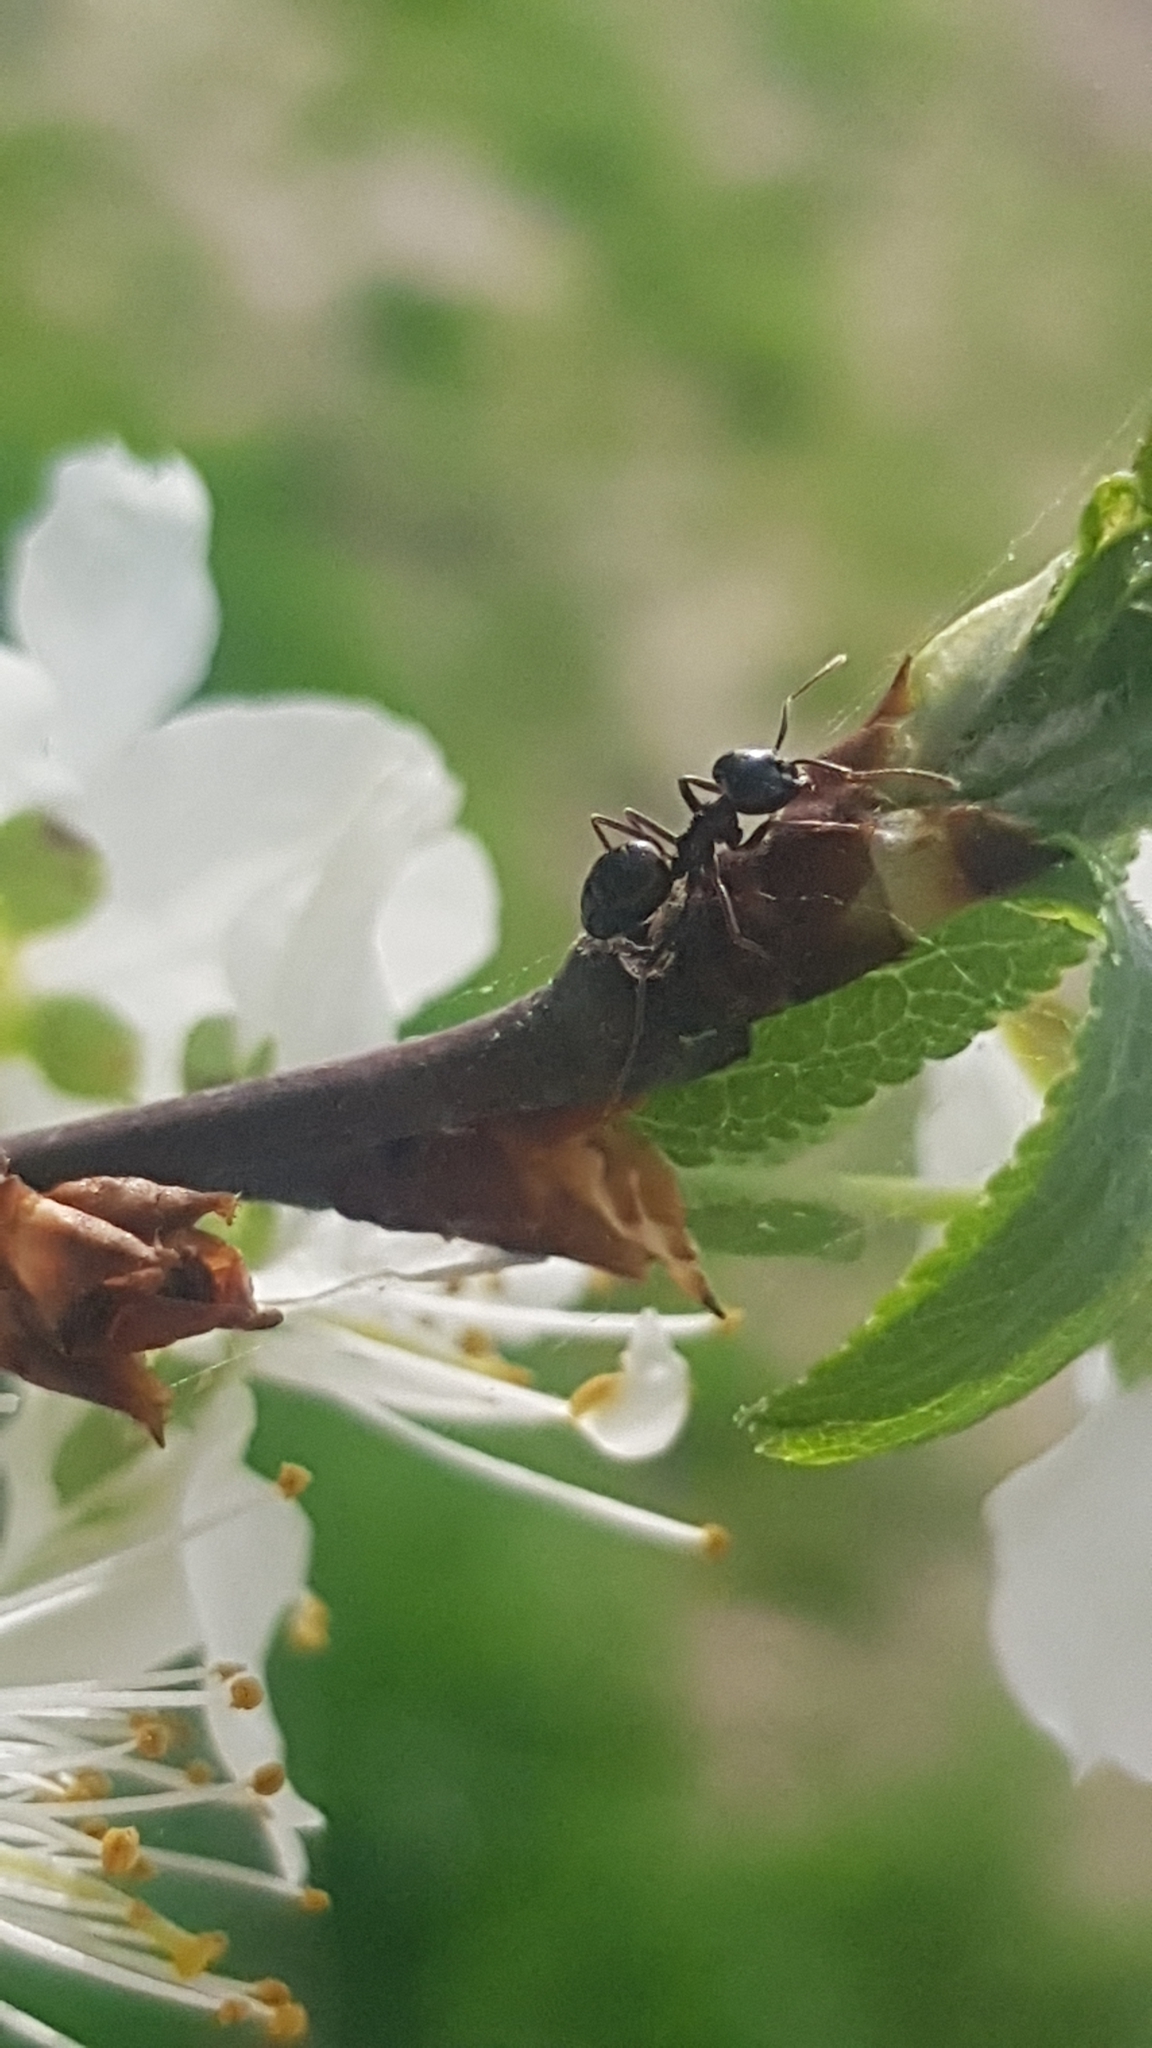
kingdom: Animalia
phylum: Arthropoda
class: Insecta
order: Hymenoptera
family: Formicidae
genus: Lasius
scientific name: Lasius fuliginosus
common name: Jet ant
